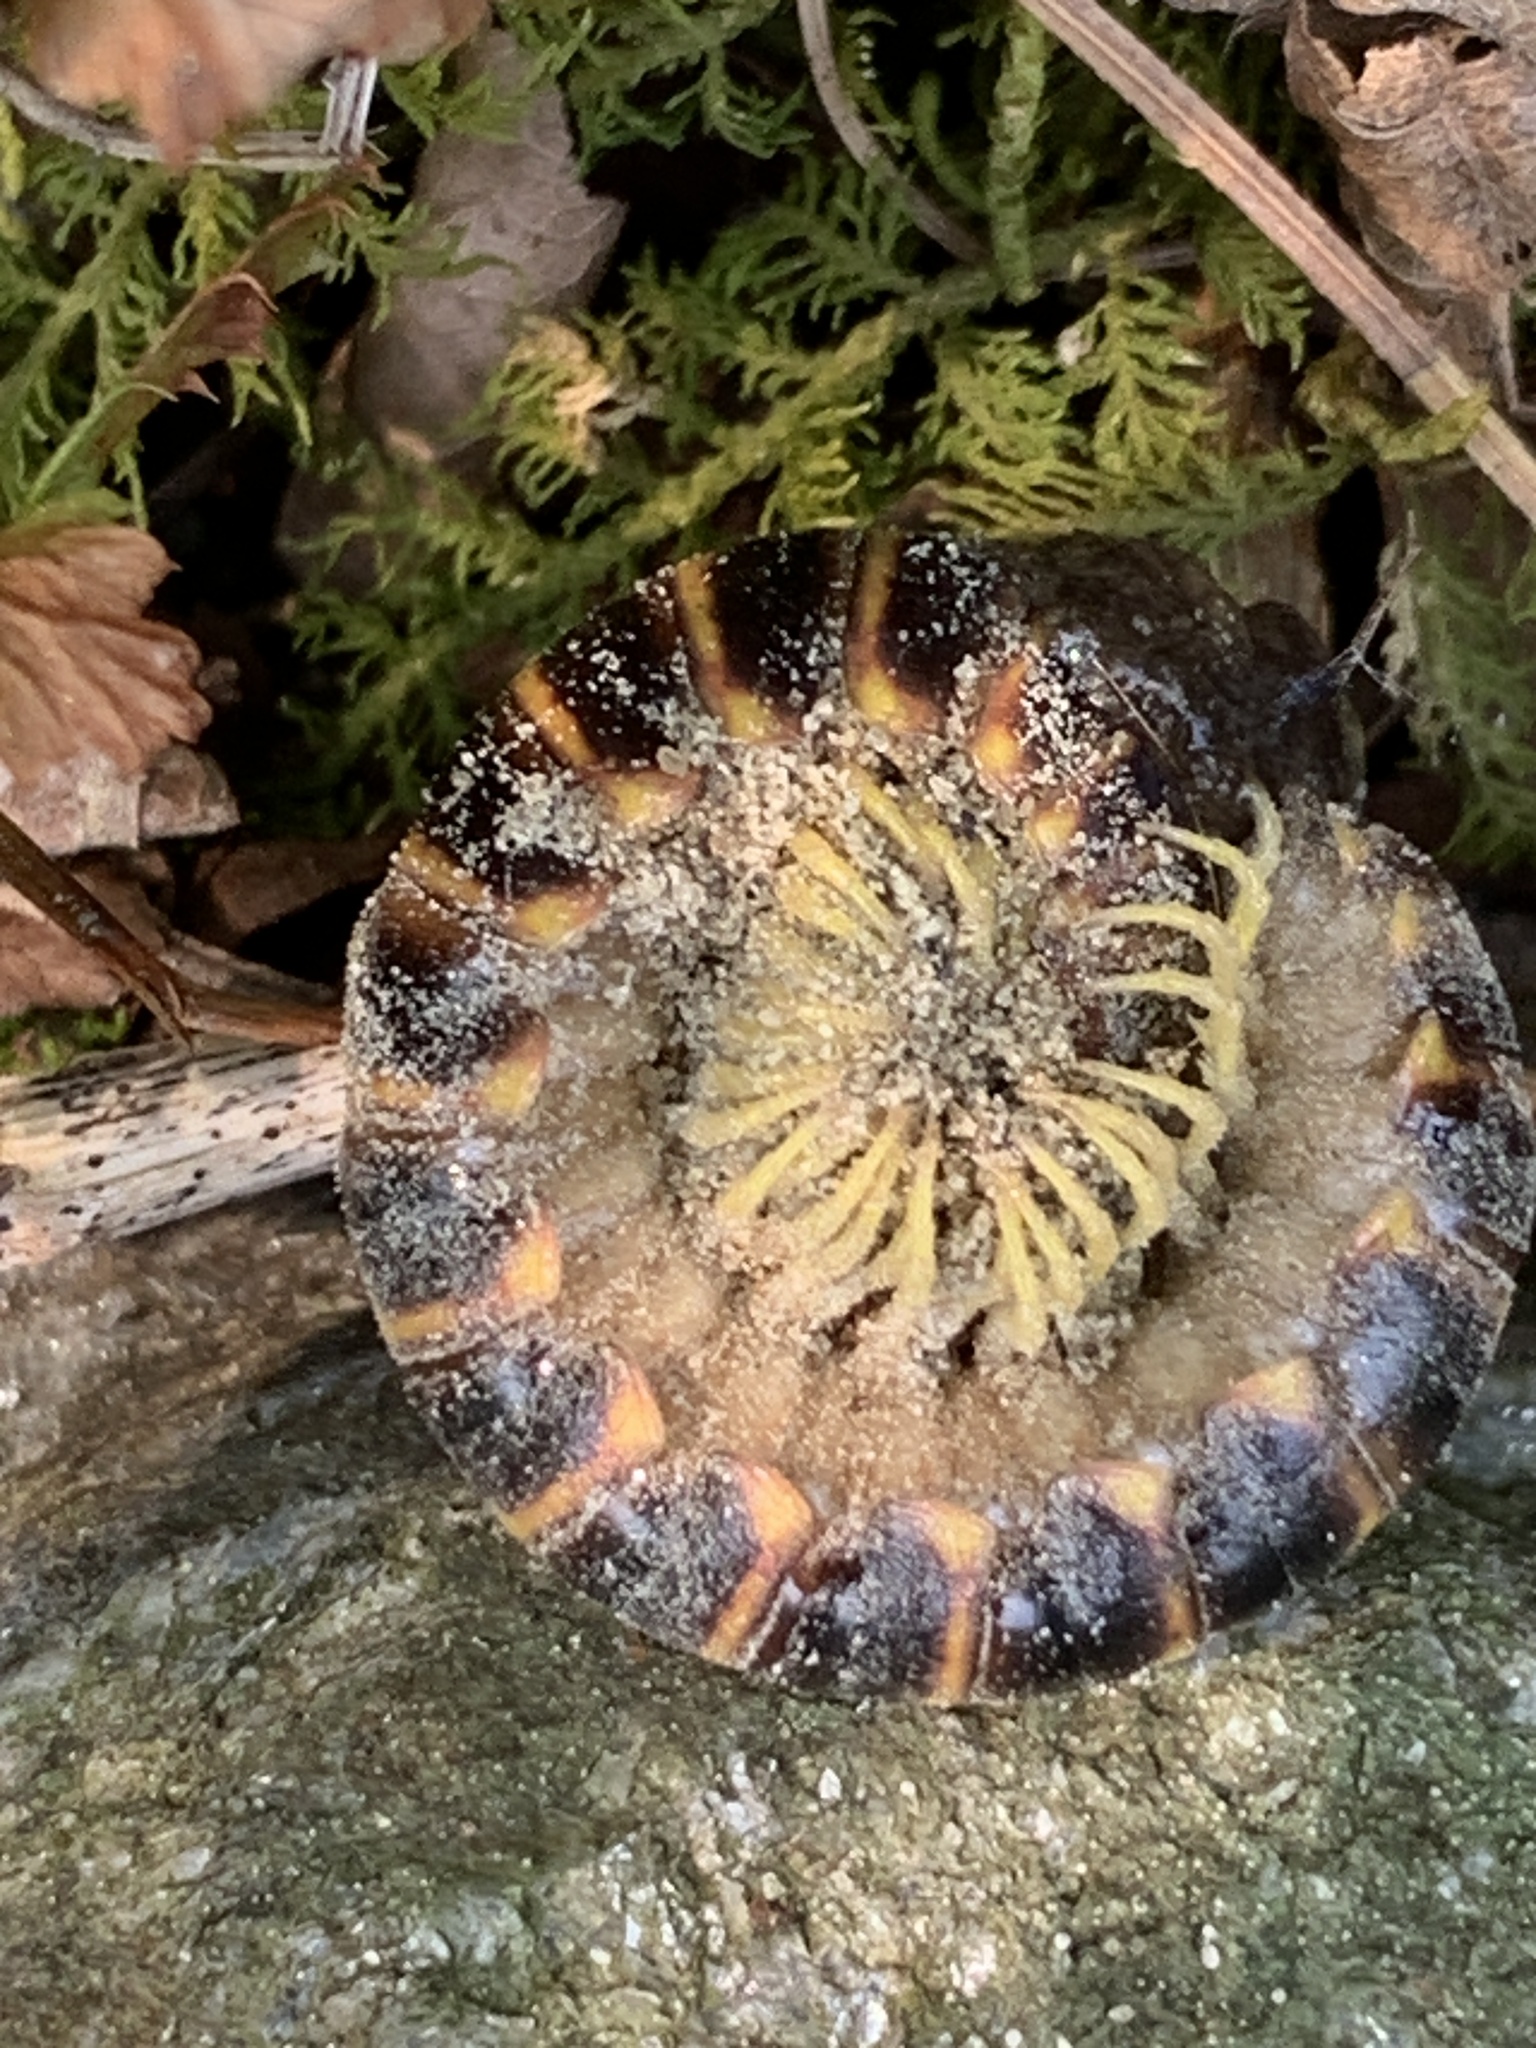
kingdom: Animalia
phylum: Arthropoda
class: Diplopoda
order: Polydesmida
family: Xystodesmidae
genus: Apheloria
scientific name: Apheloria virginiensis
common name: Black-and-gold flat millipede
